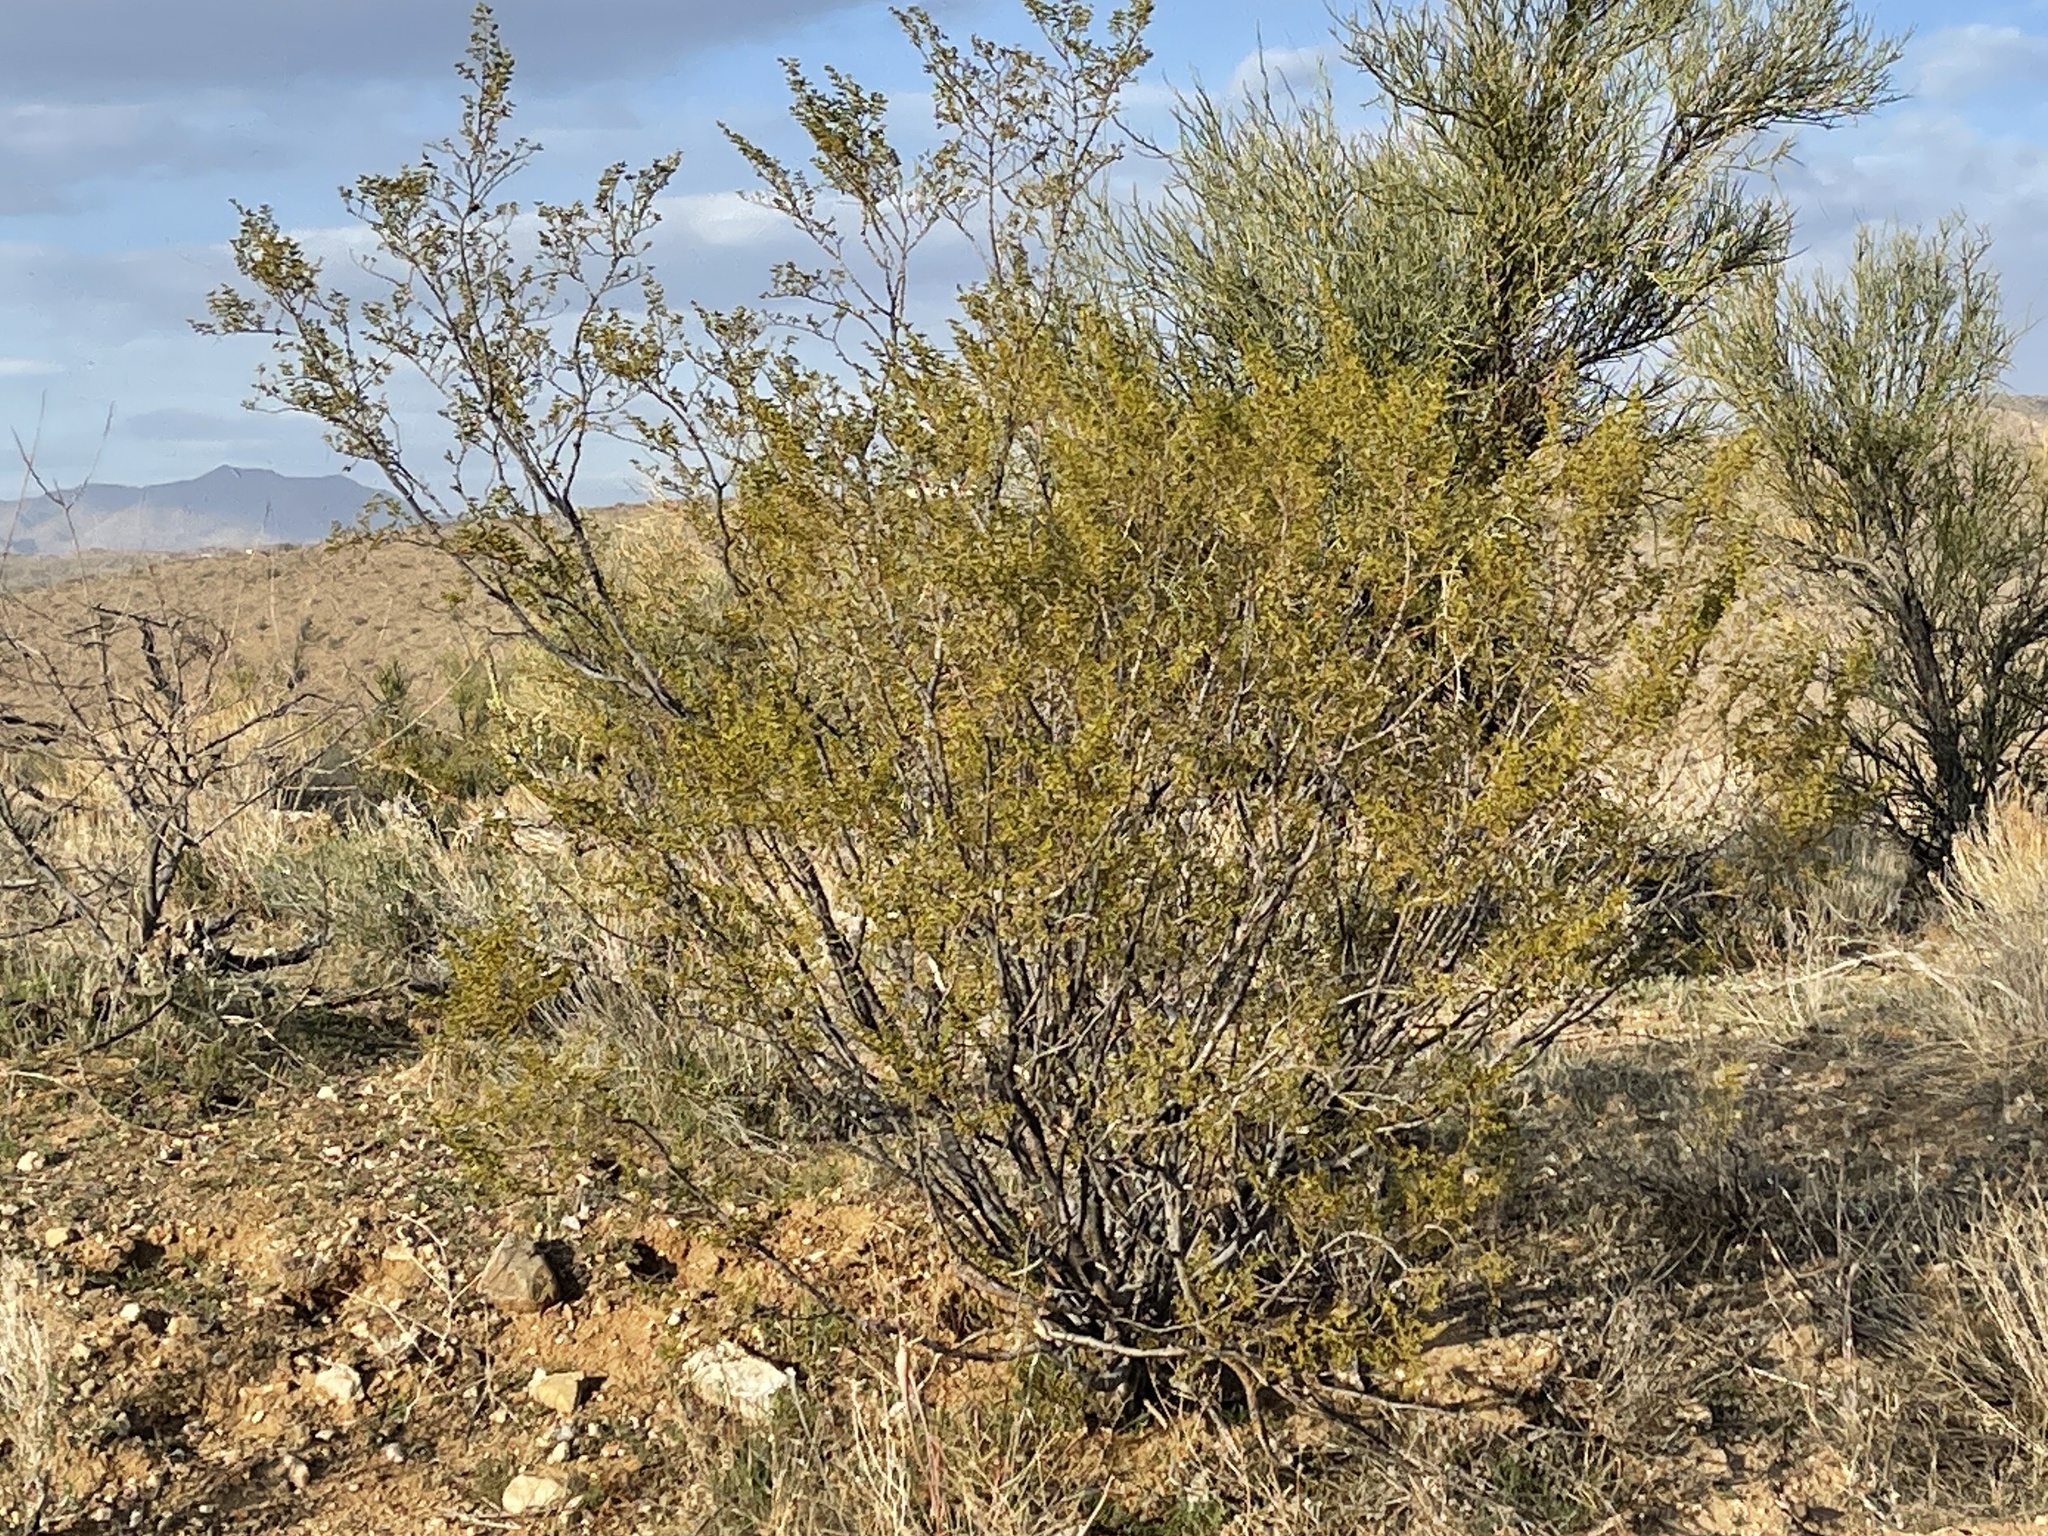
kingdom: Plantae
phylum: Tracheophyta
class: Magnoliopsida
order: Zygophyllales
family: Zygophyllaceae
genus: Larrea
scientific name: Larrea tridentata
